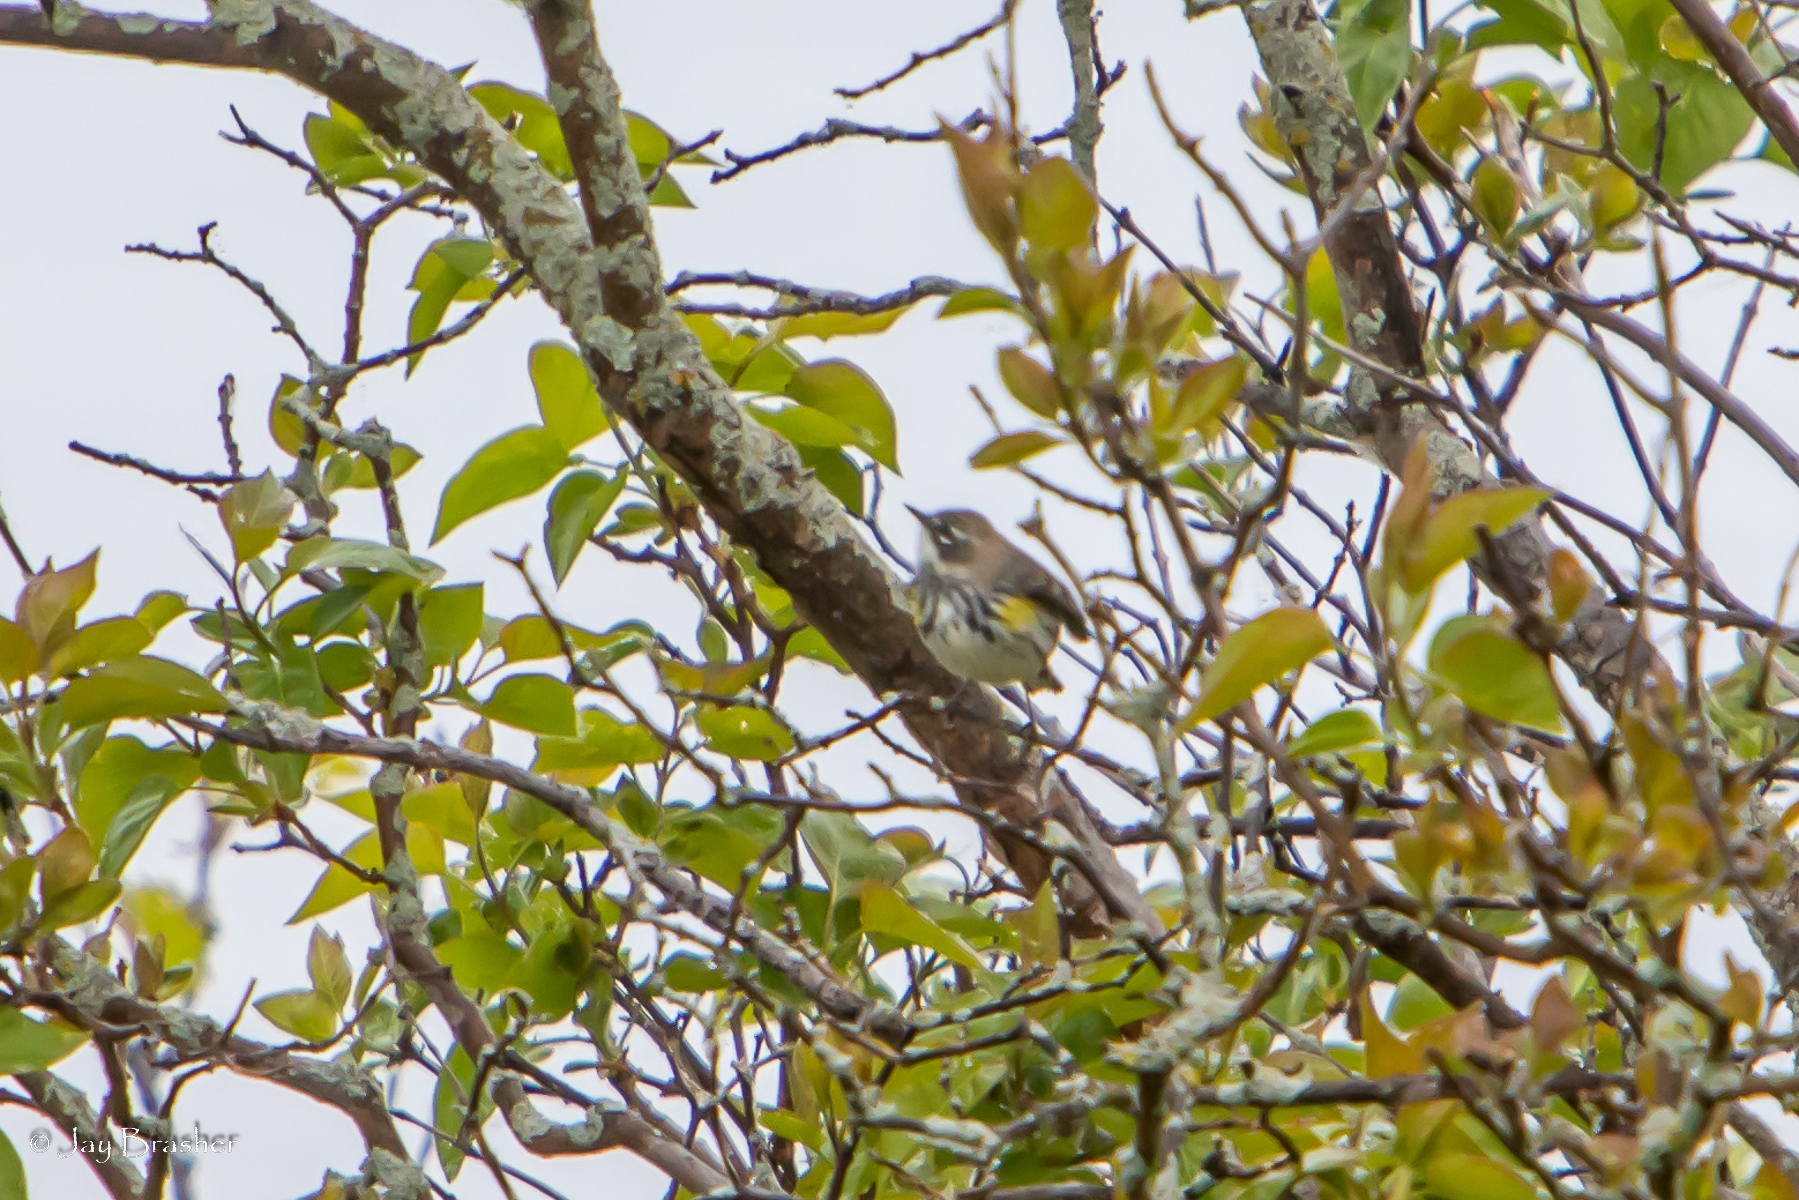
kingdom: Animalia
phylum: Chordata
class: Aves
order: Passeriformes
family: Parulidae
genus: Setophaga
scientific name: Setophaga coronata
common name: Myrtle warbler
